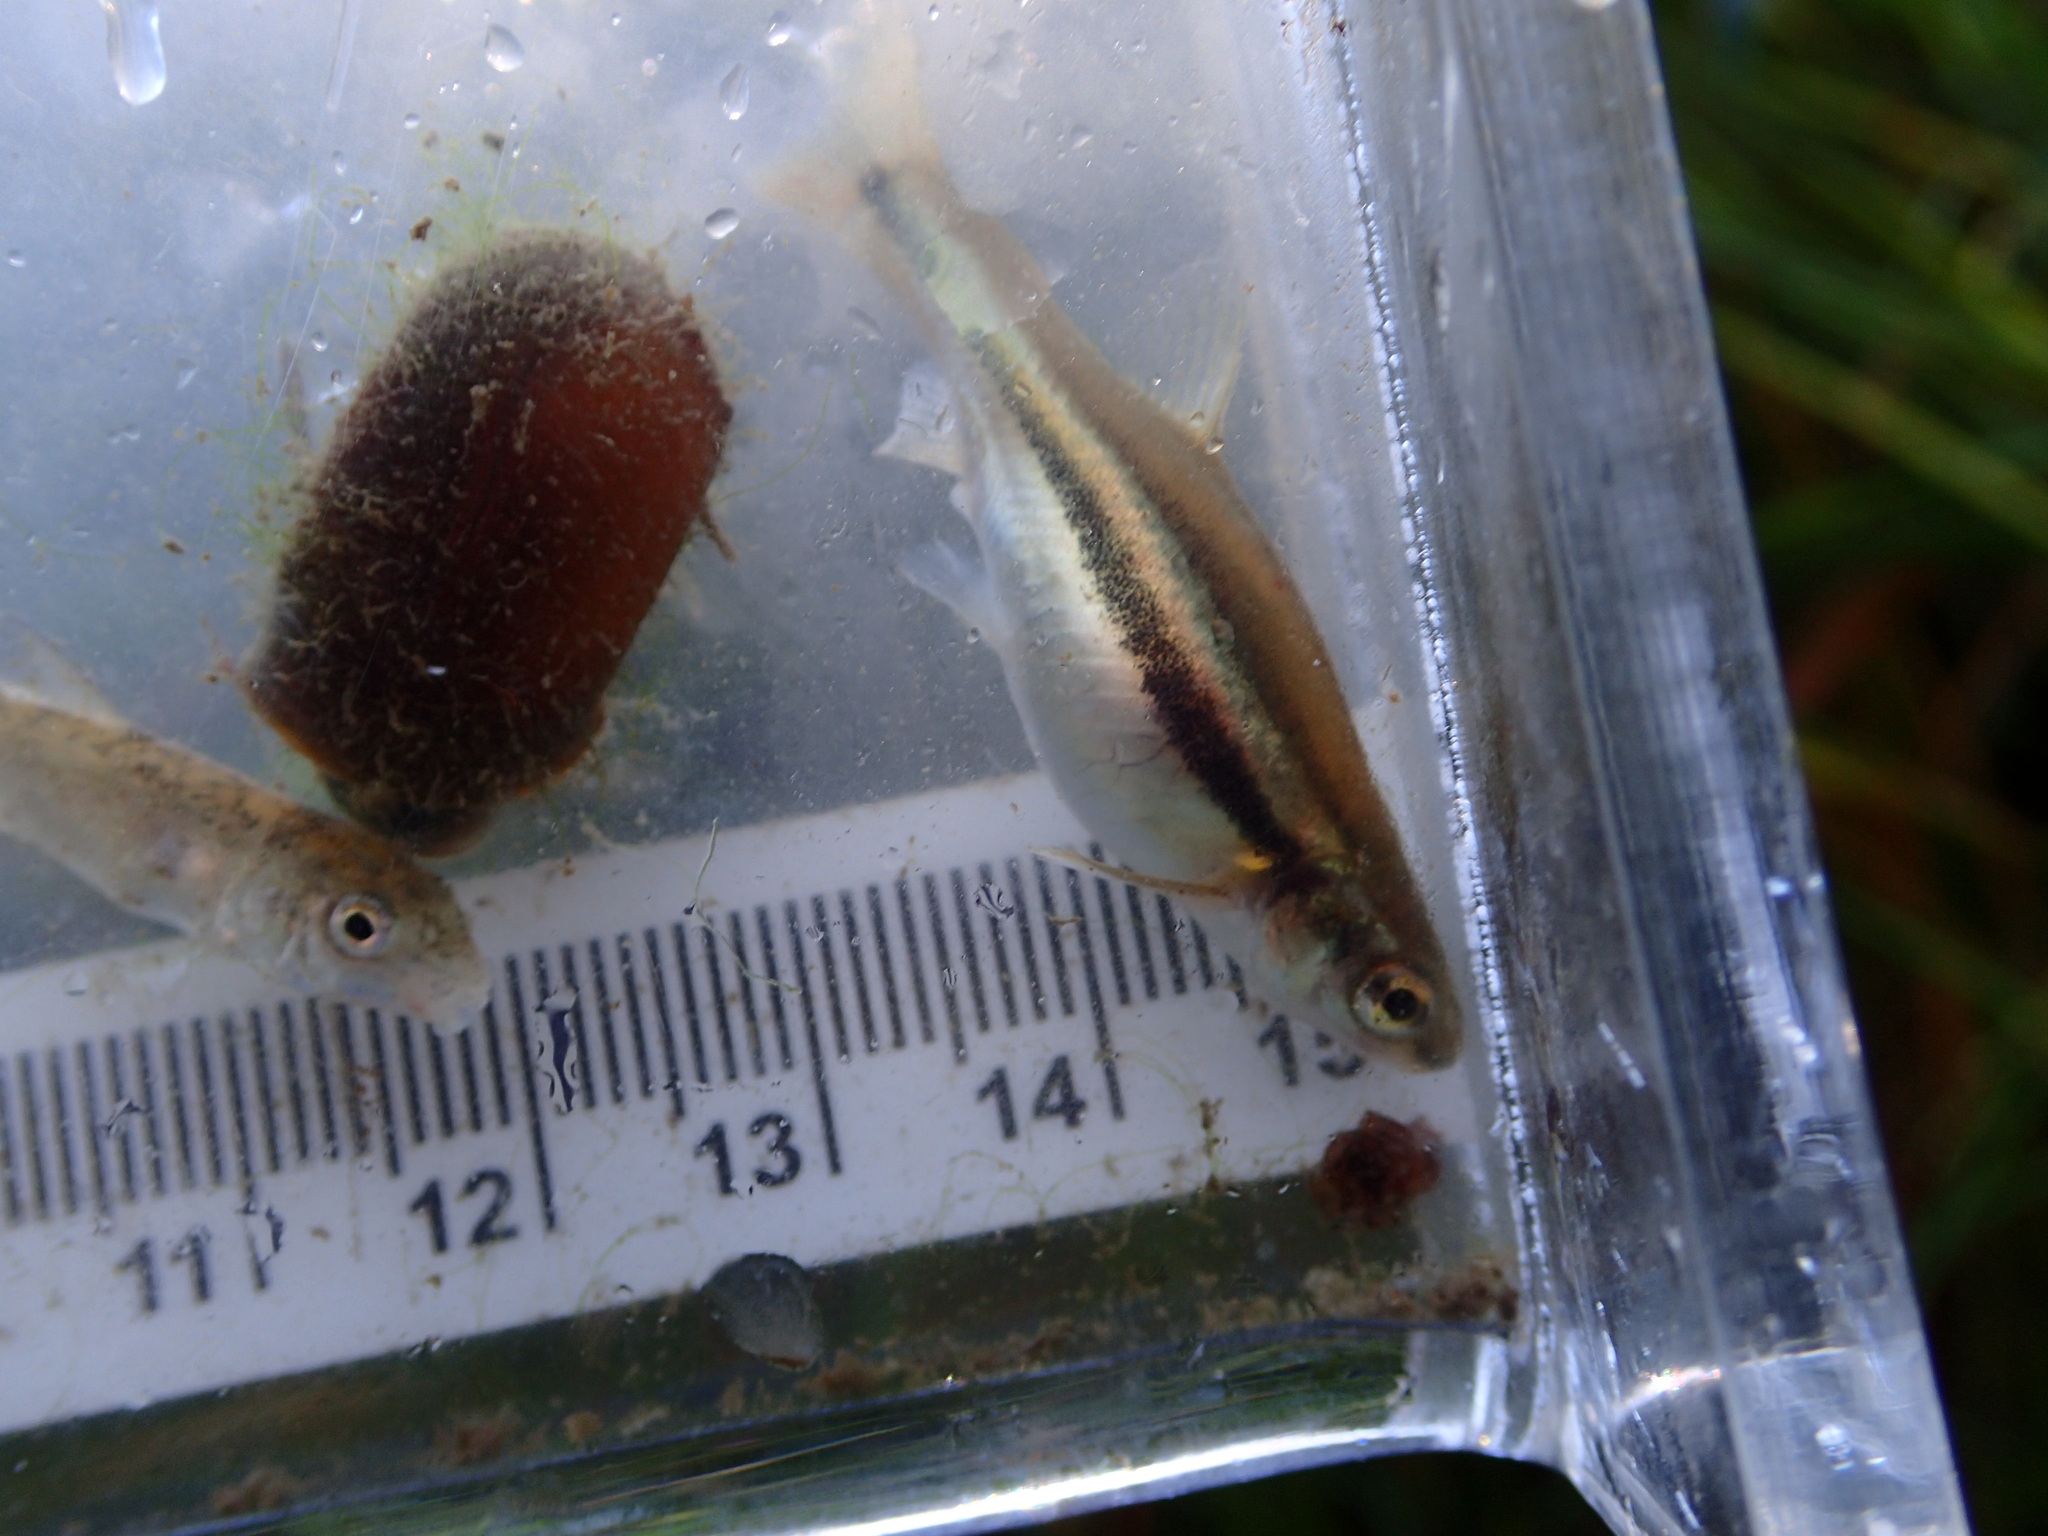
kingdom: Animalia
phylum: Chordata
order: Cypriniformes
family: Cyprinidae
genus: Chrosomus
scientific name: Chrosomus eos
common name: Northern redbelly dace
